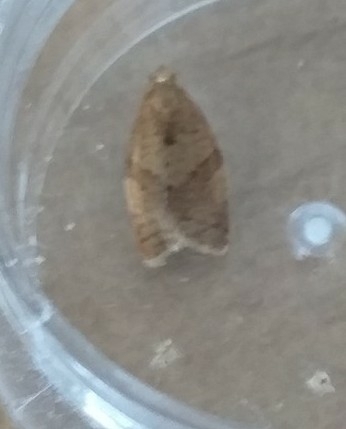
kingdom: Animalia
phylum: Arthropoda
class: Insecta
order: Lepidoptera
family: Tortricidae
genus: Epiphyas
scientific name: Epiphyas postvittana
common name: Light brown apple moth
